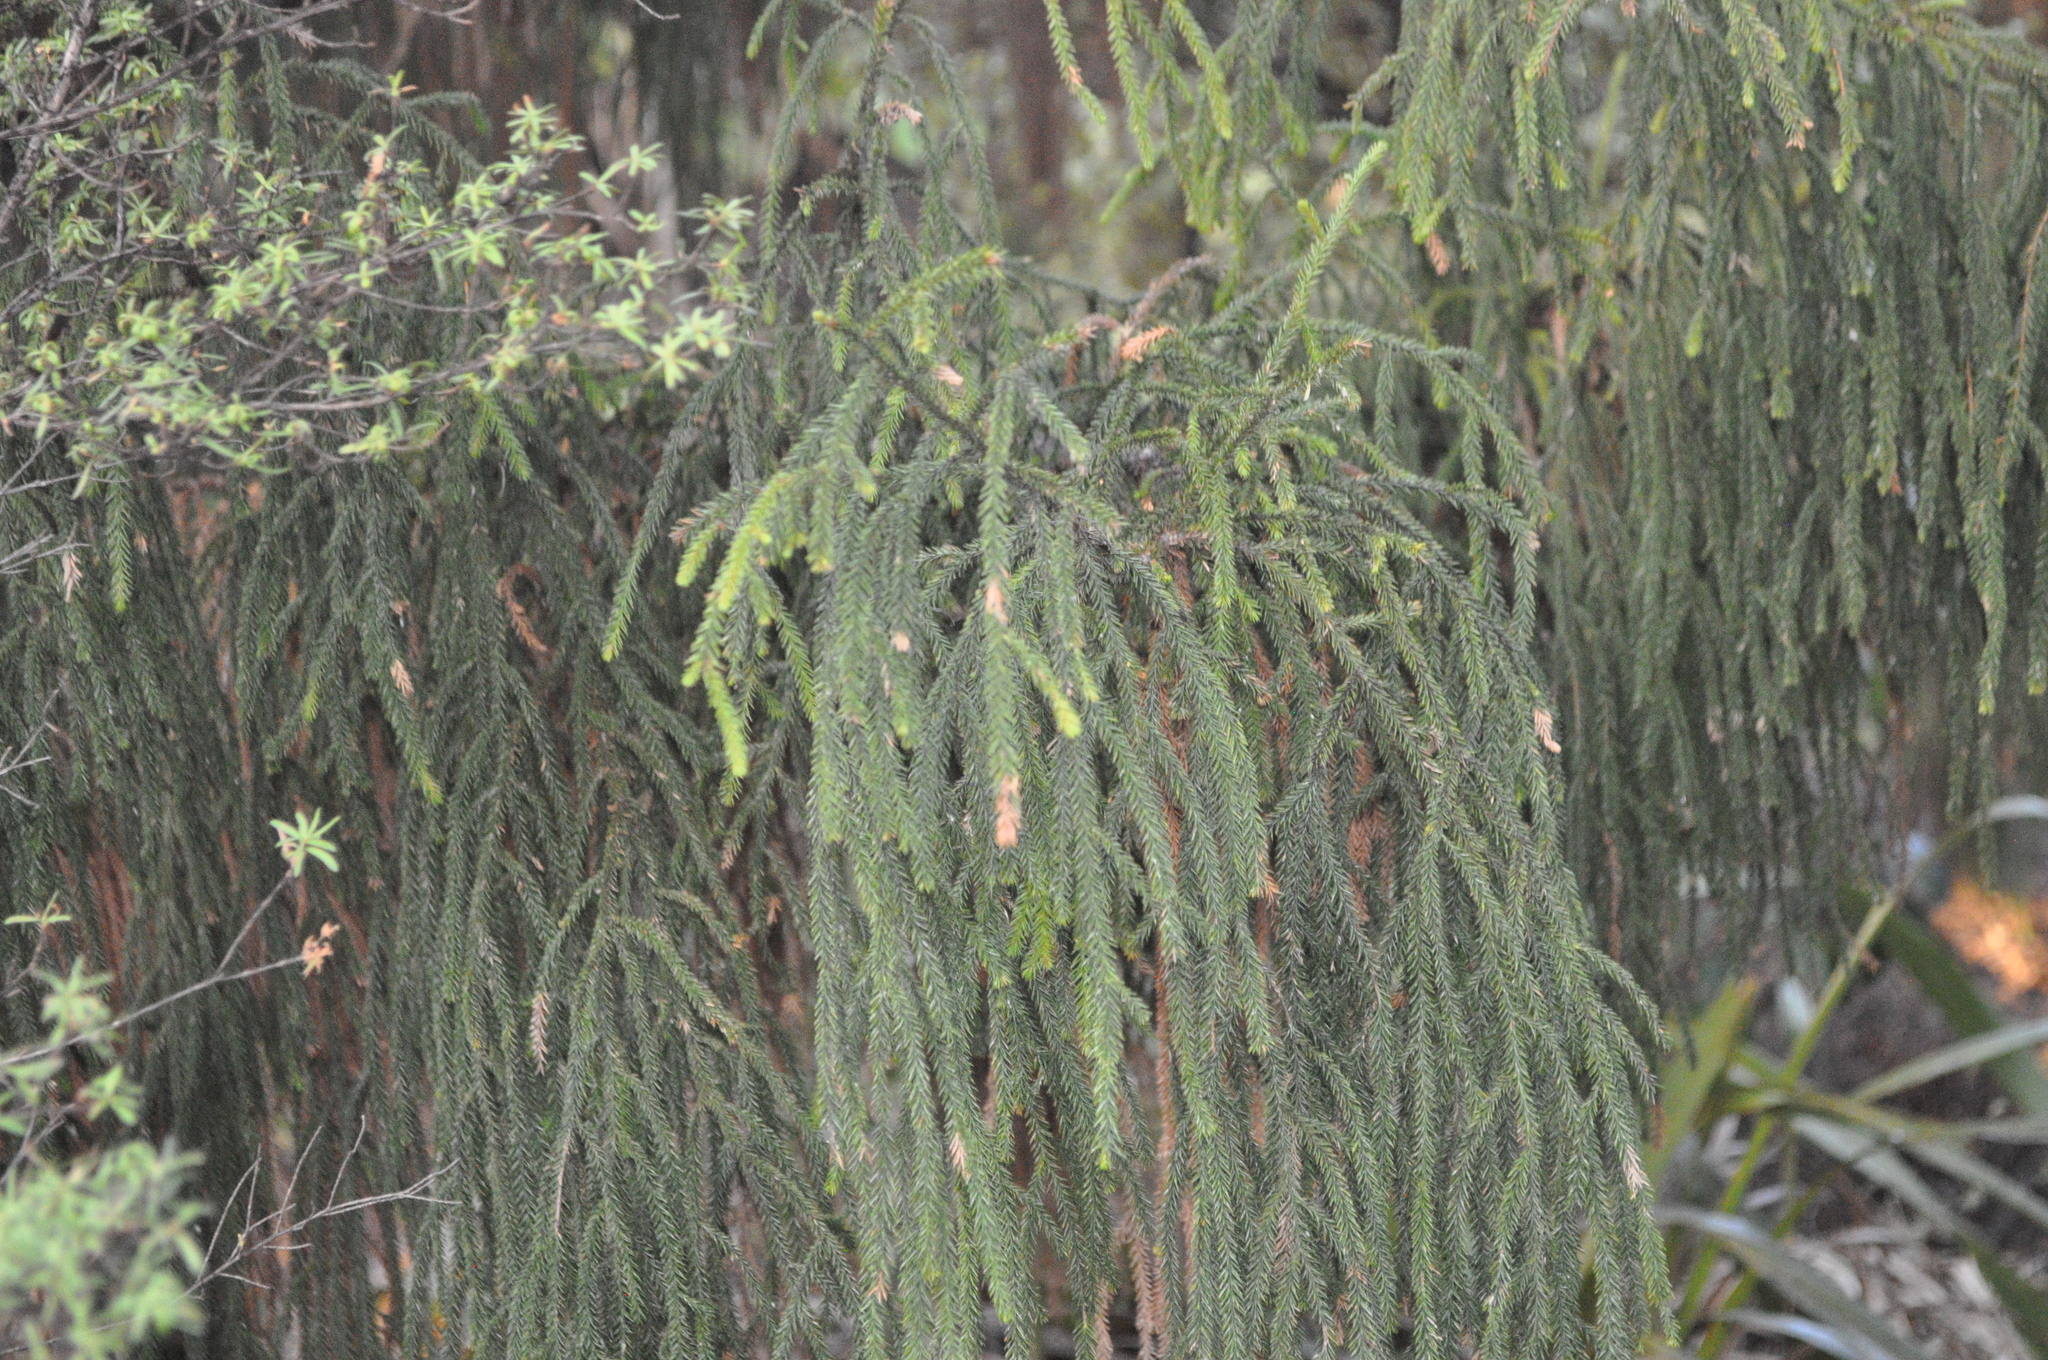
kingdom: Plantae
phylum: Tracheophyta
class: Pinopsida
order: Pinales
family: Podocarpaceae
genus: Dacrydium
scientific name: Dacrydium cupressinum
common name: Red pine
